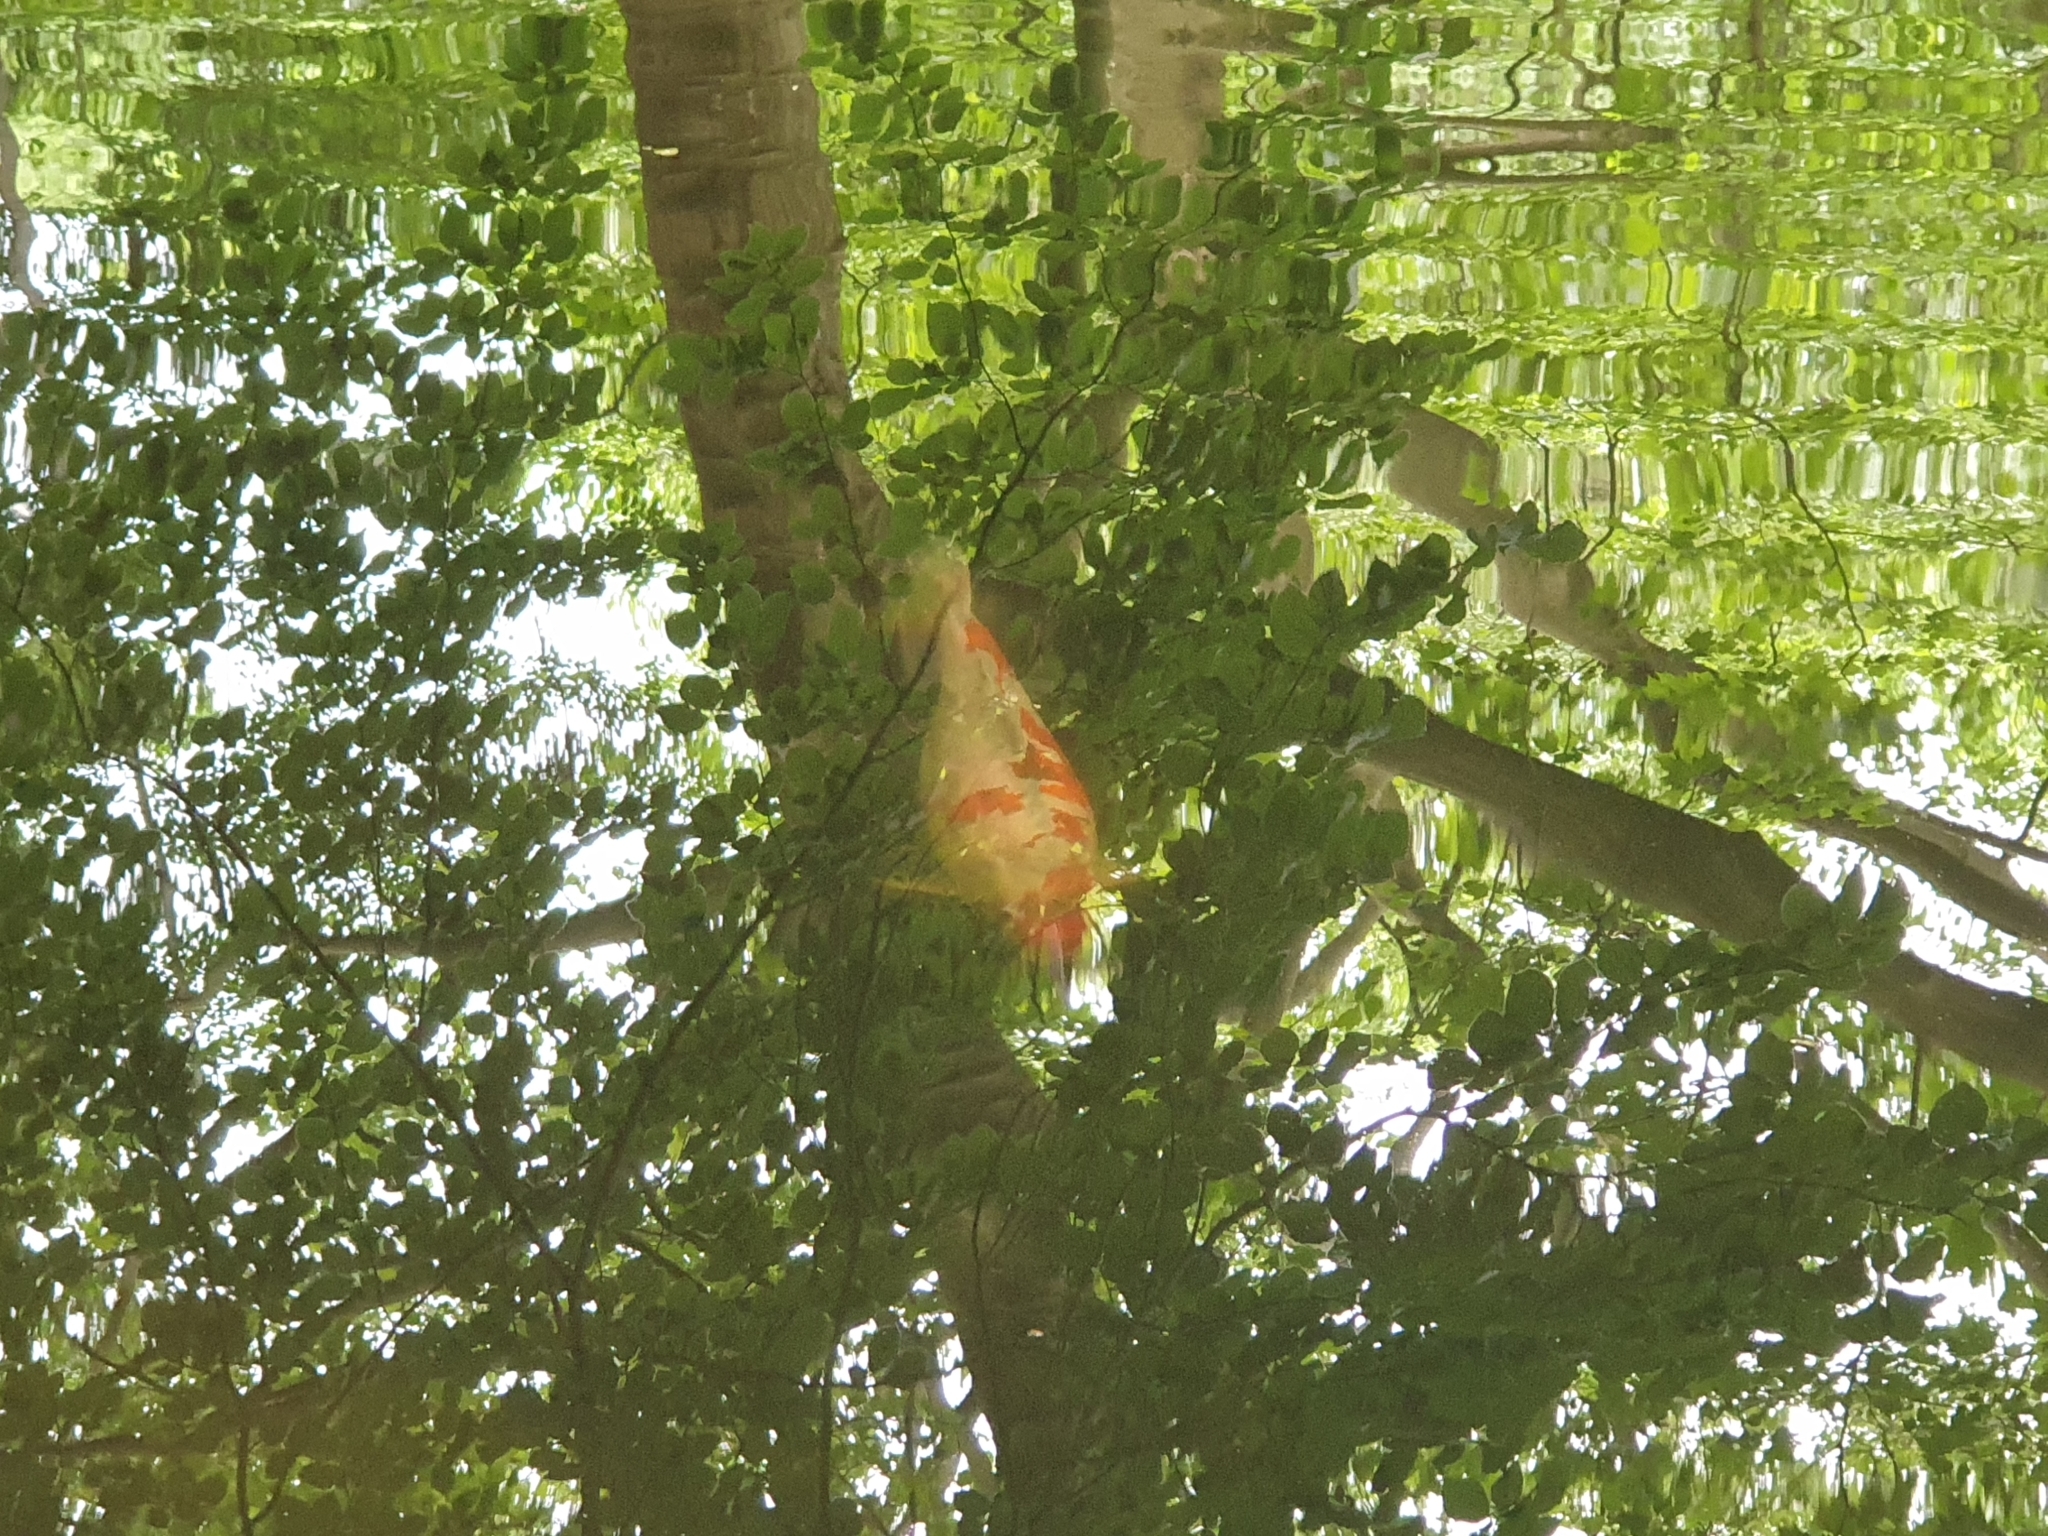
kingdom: Animalia
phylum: Chordata
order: Cypriniformes
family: Cyprinidae
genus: Cyprinus
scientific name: Cyprinus rubrofuscus
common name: Koi
